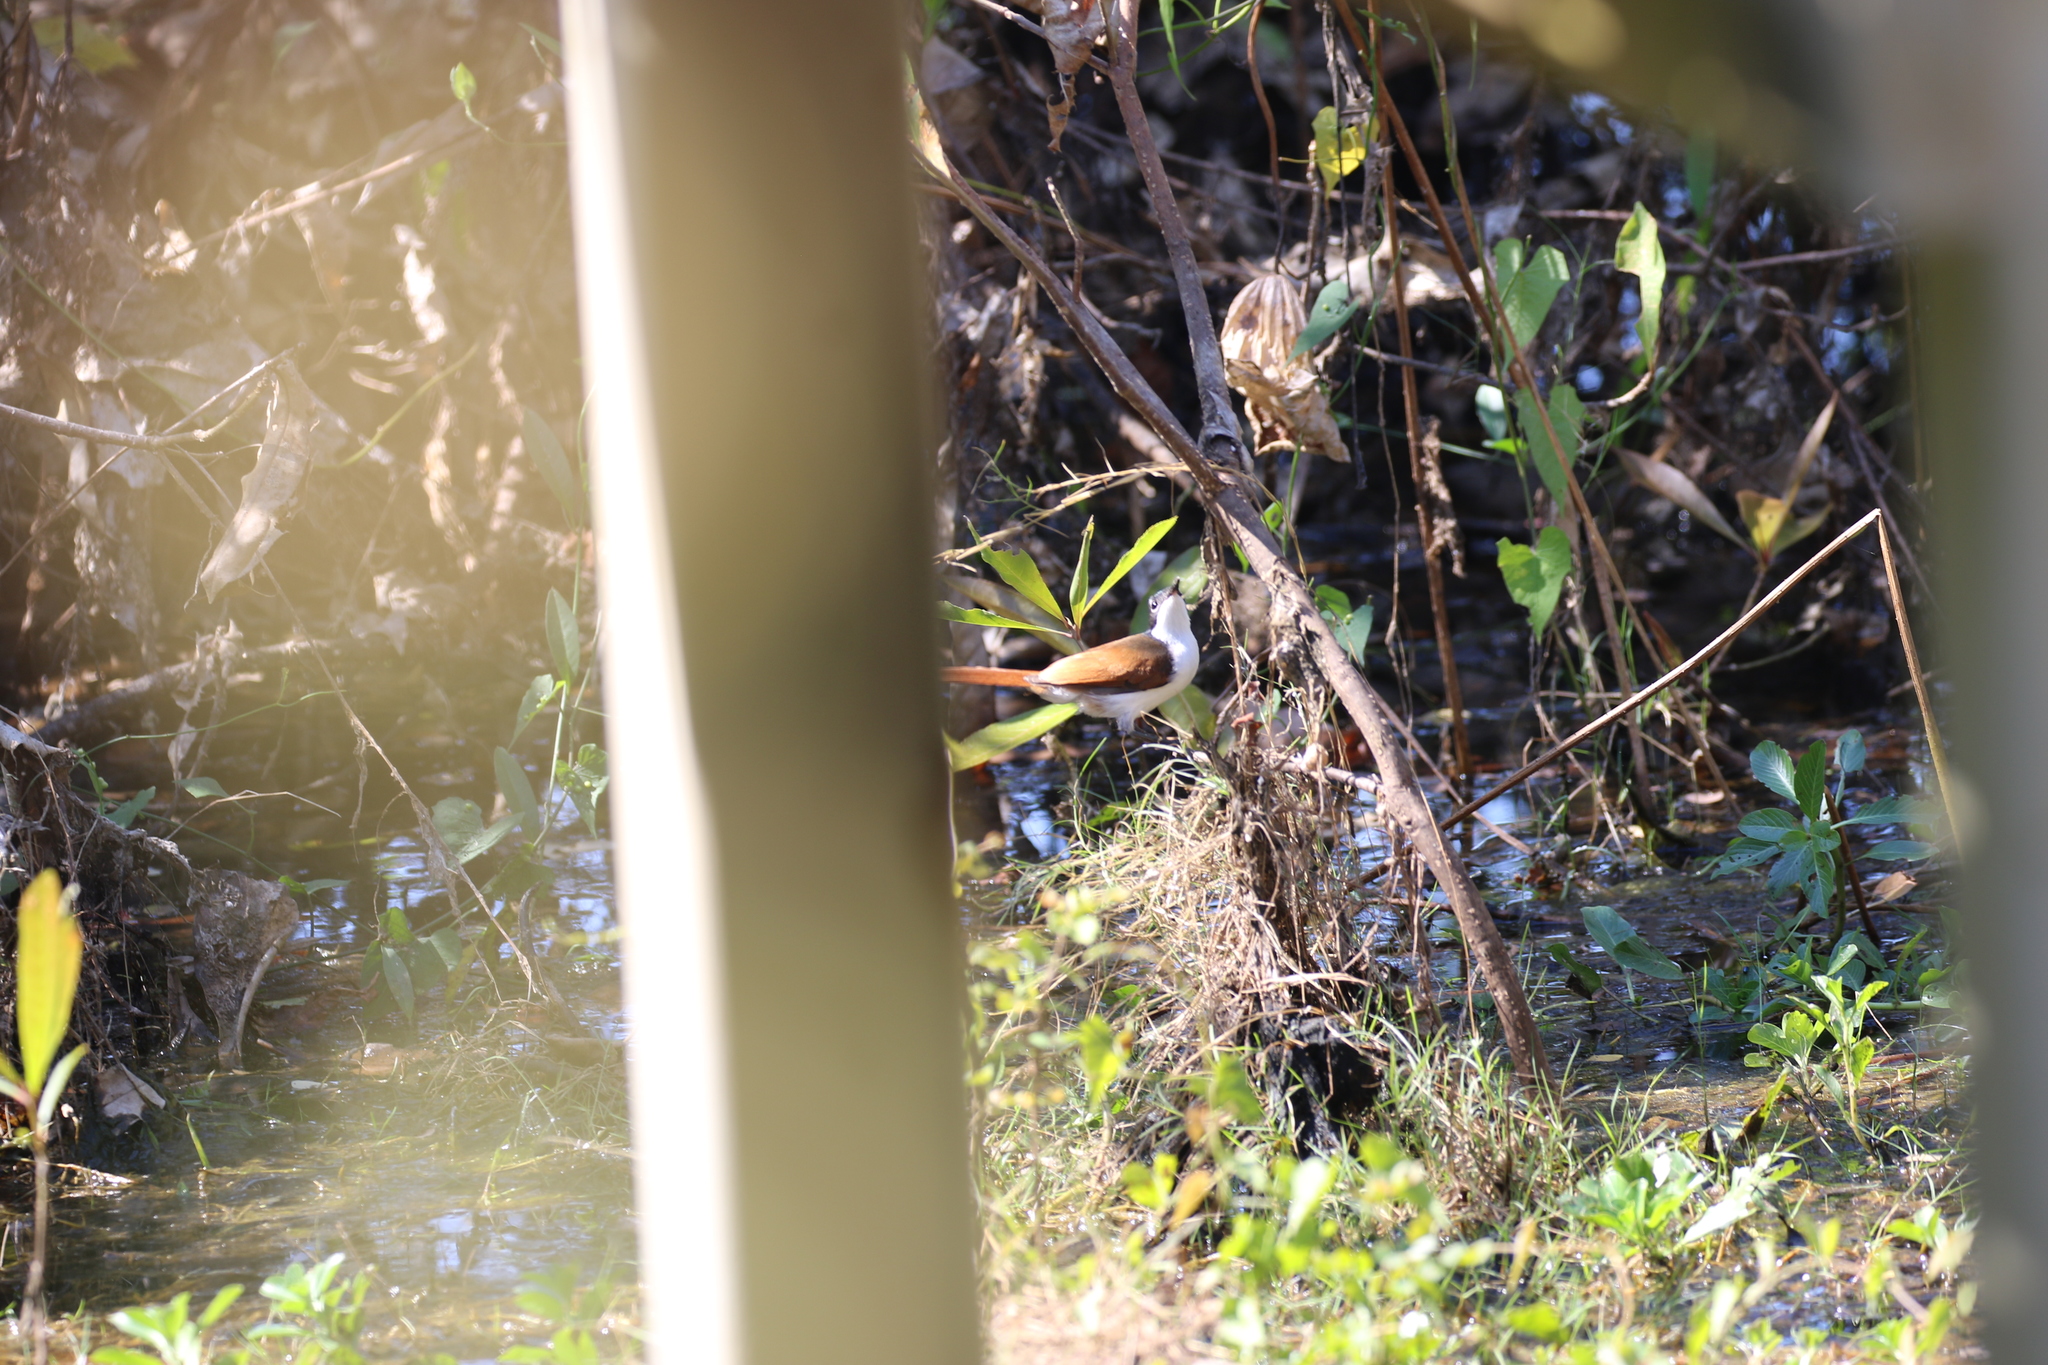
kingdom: Animalia
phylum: Chordata
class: Aves
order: Passeriformes
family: Monarchidae
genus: Myiagra
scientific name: Myiagra alecto
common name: Shining flycatcher
